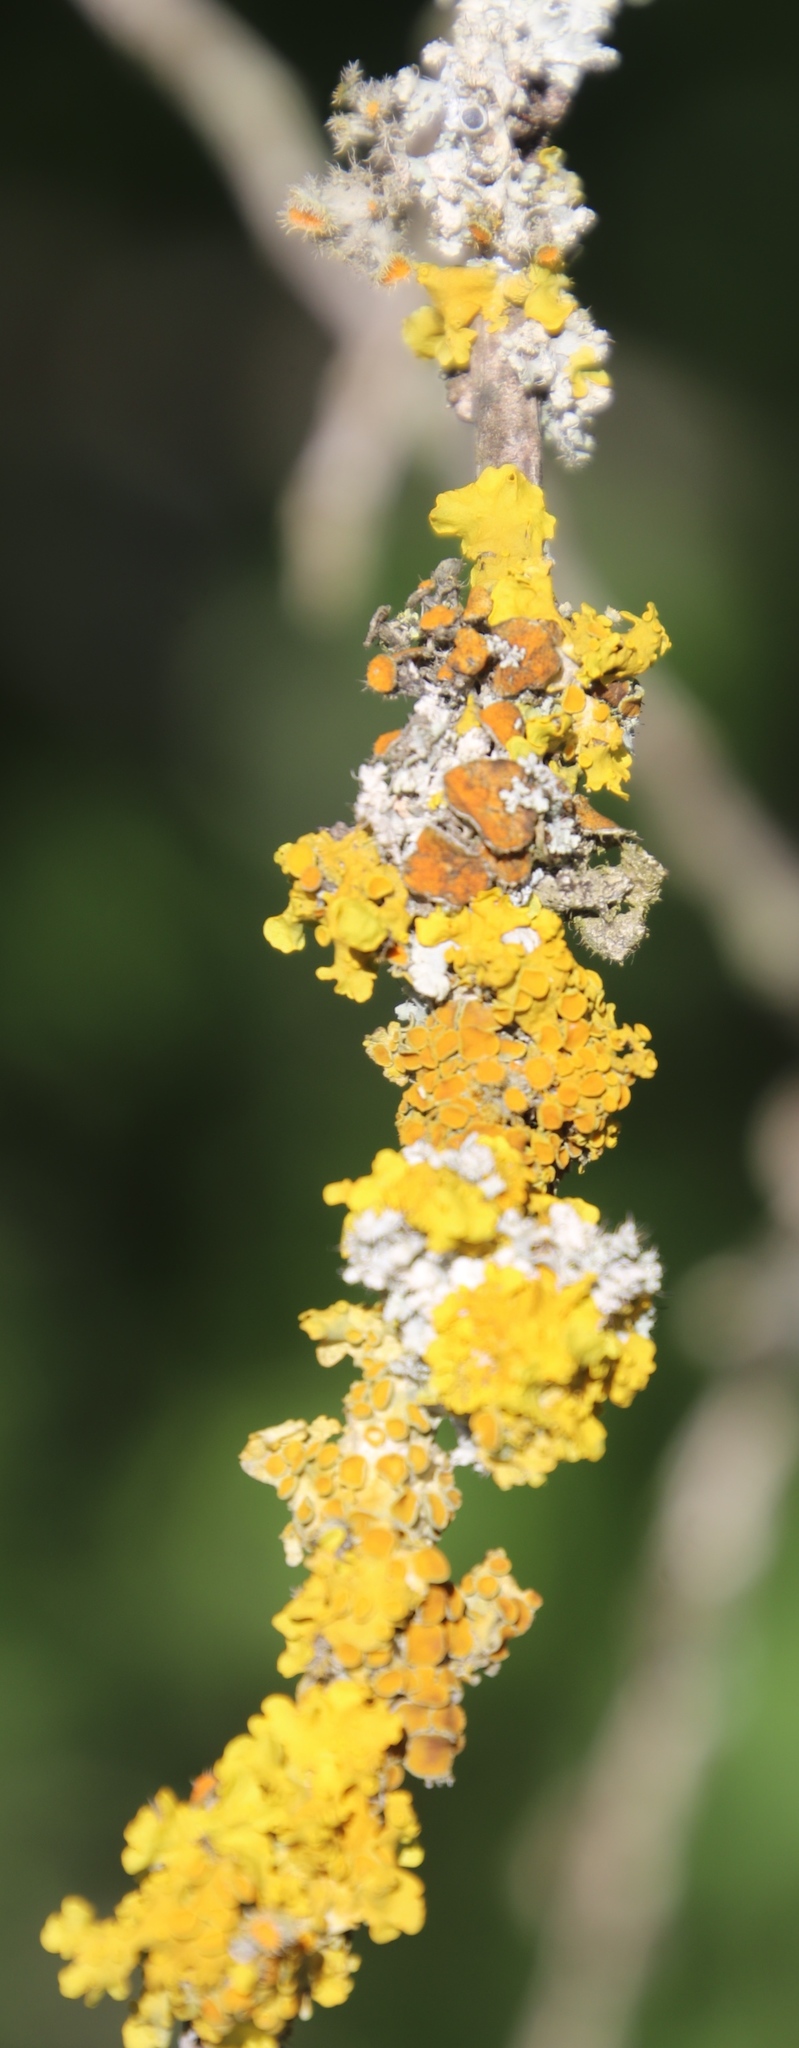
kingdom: Fungi
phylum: Ascomycota
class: Lecanoromycetes
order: Teloschistales
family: Teloschistaceae
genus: Xanthoria
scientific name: Xanthoria parietina
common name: Common orange lichen
